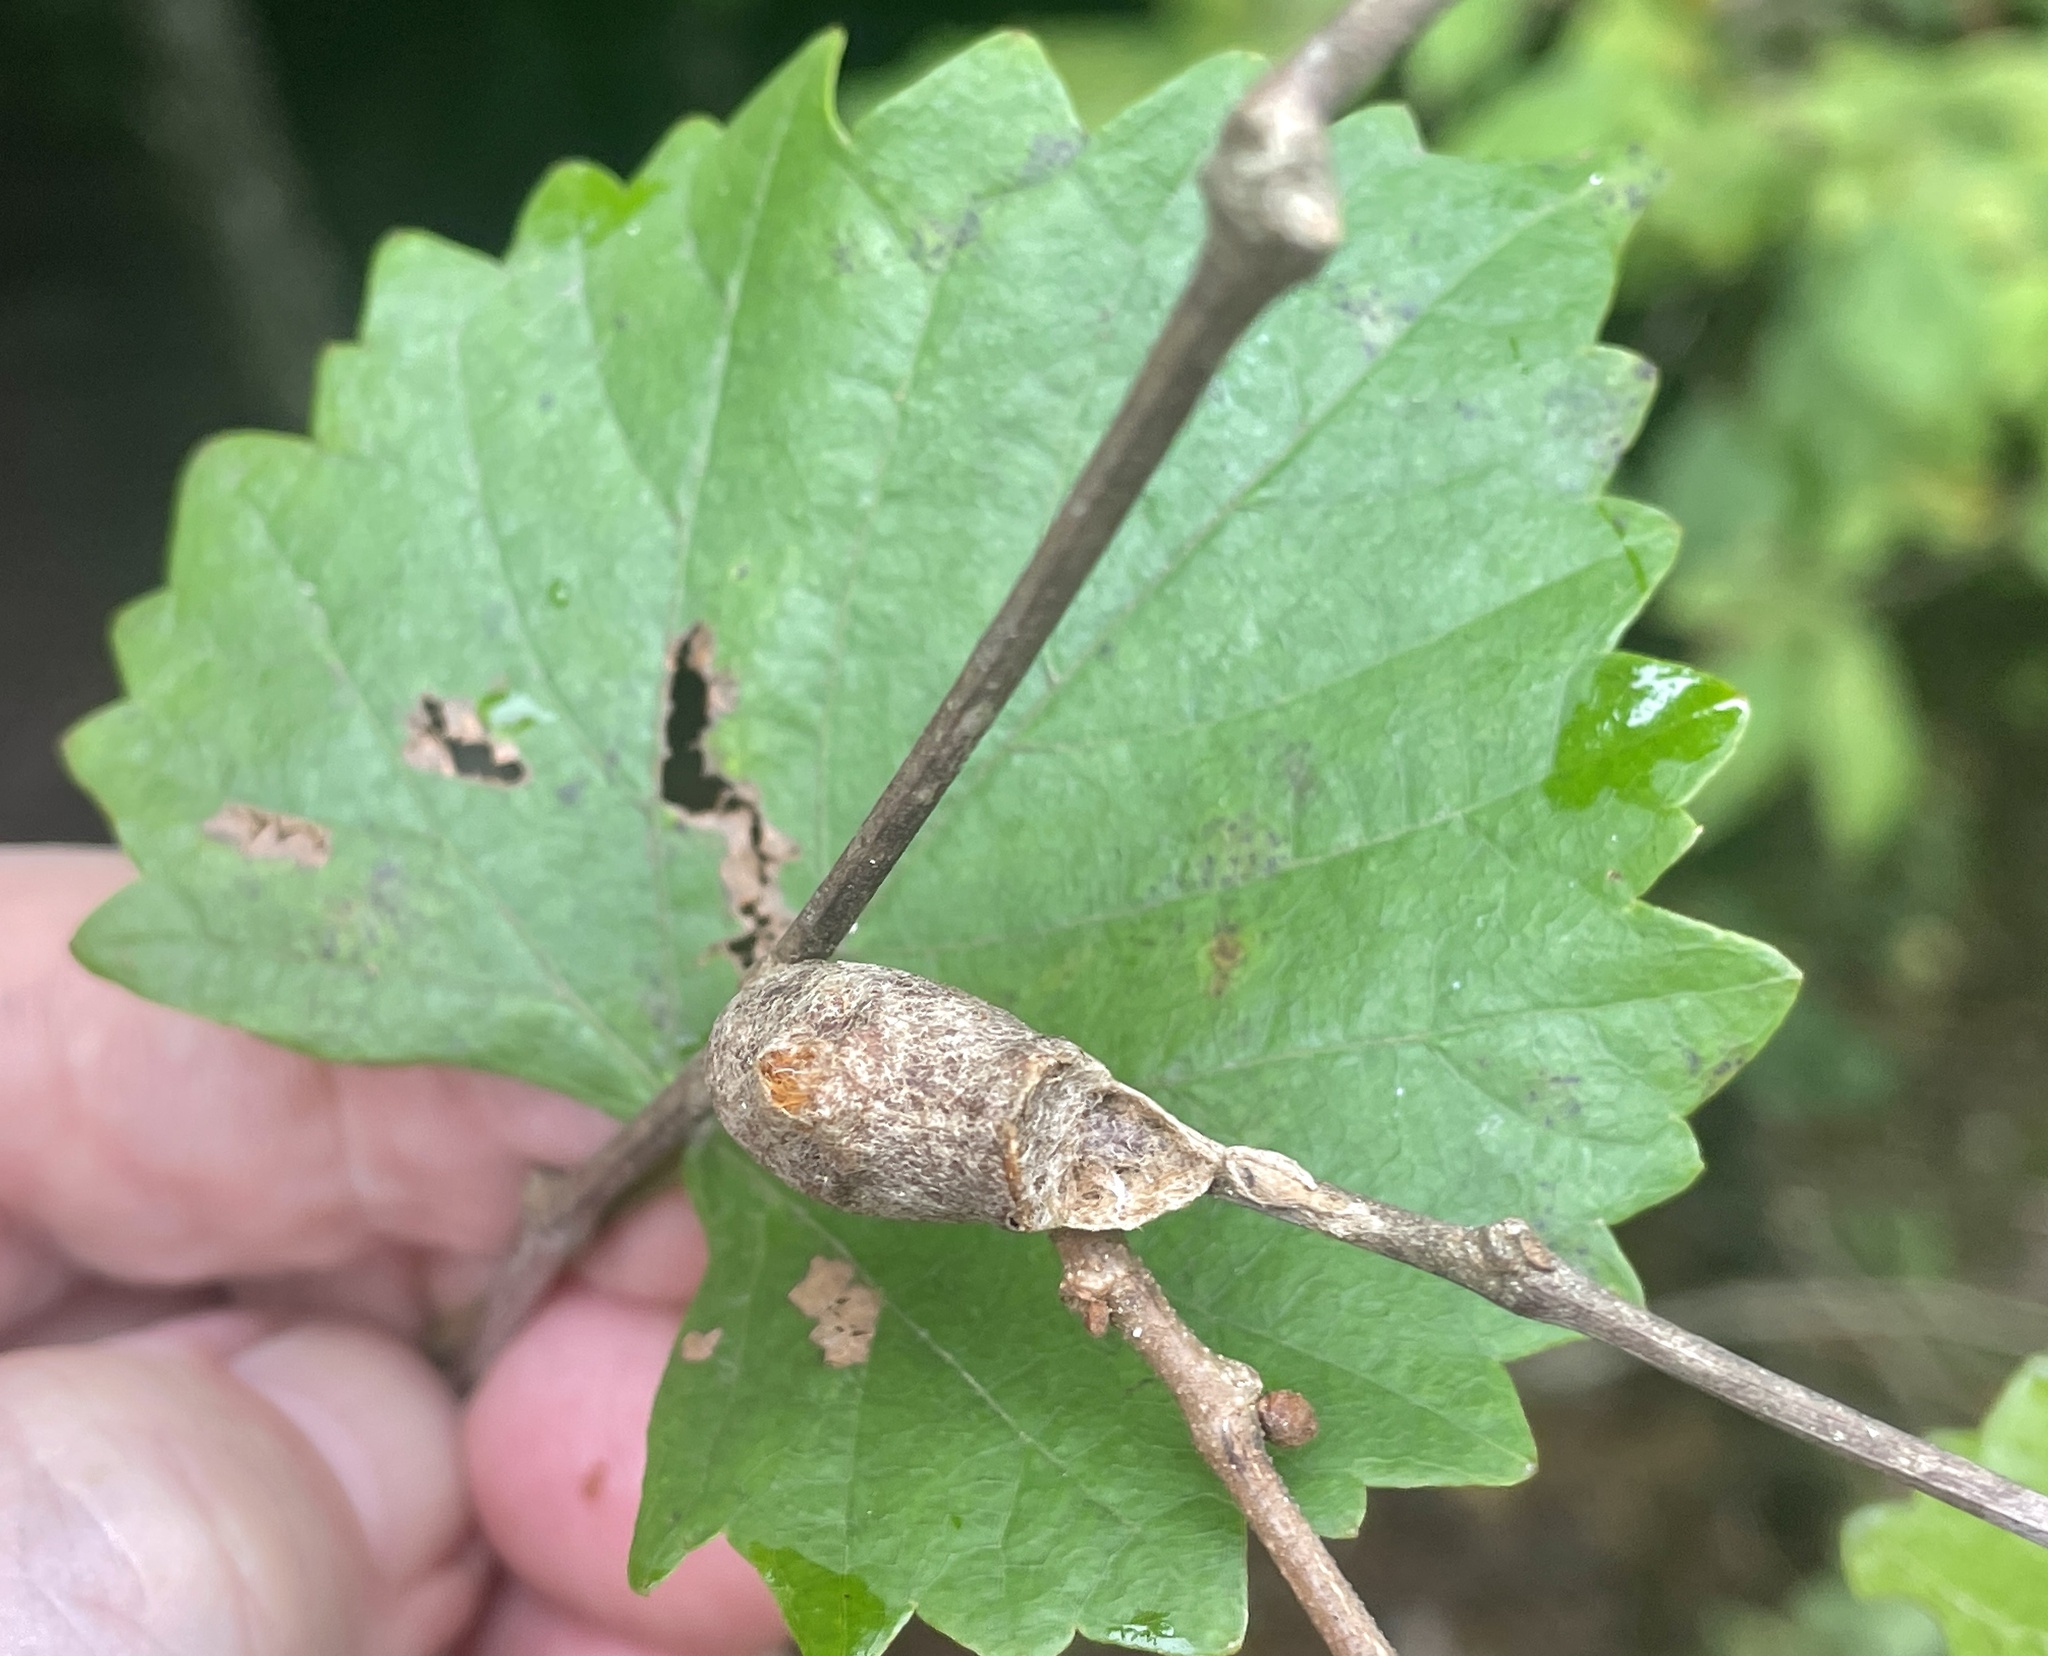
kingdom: Animalia
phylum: Arthropoda
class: Insecta
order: Lepidoptera
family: Megalopygidae
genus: Megalopyge
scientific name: Megalopyge
